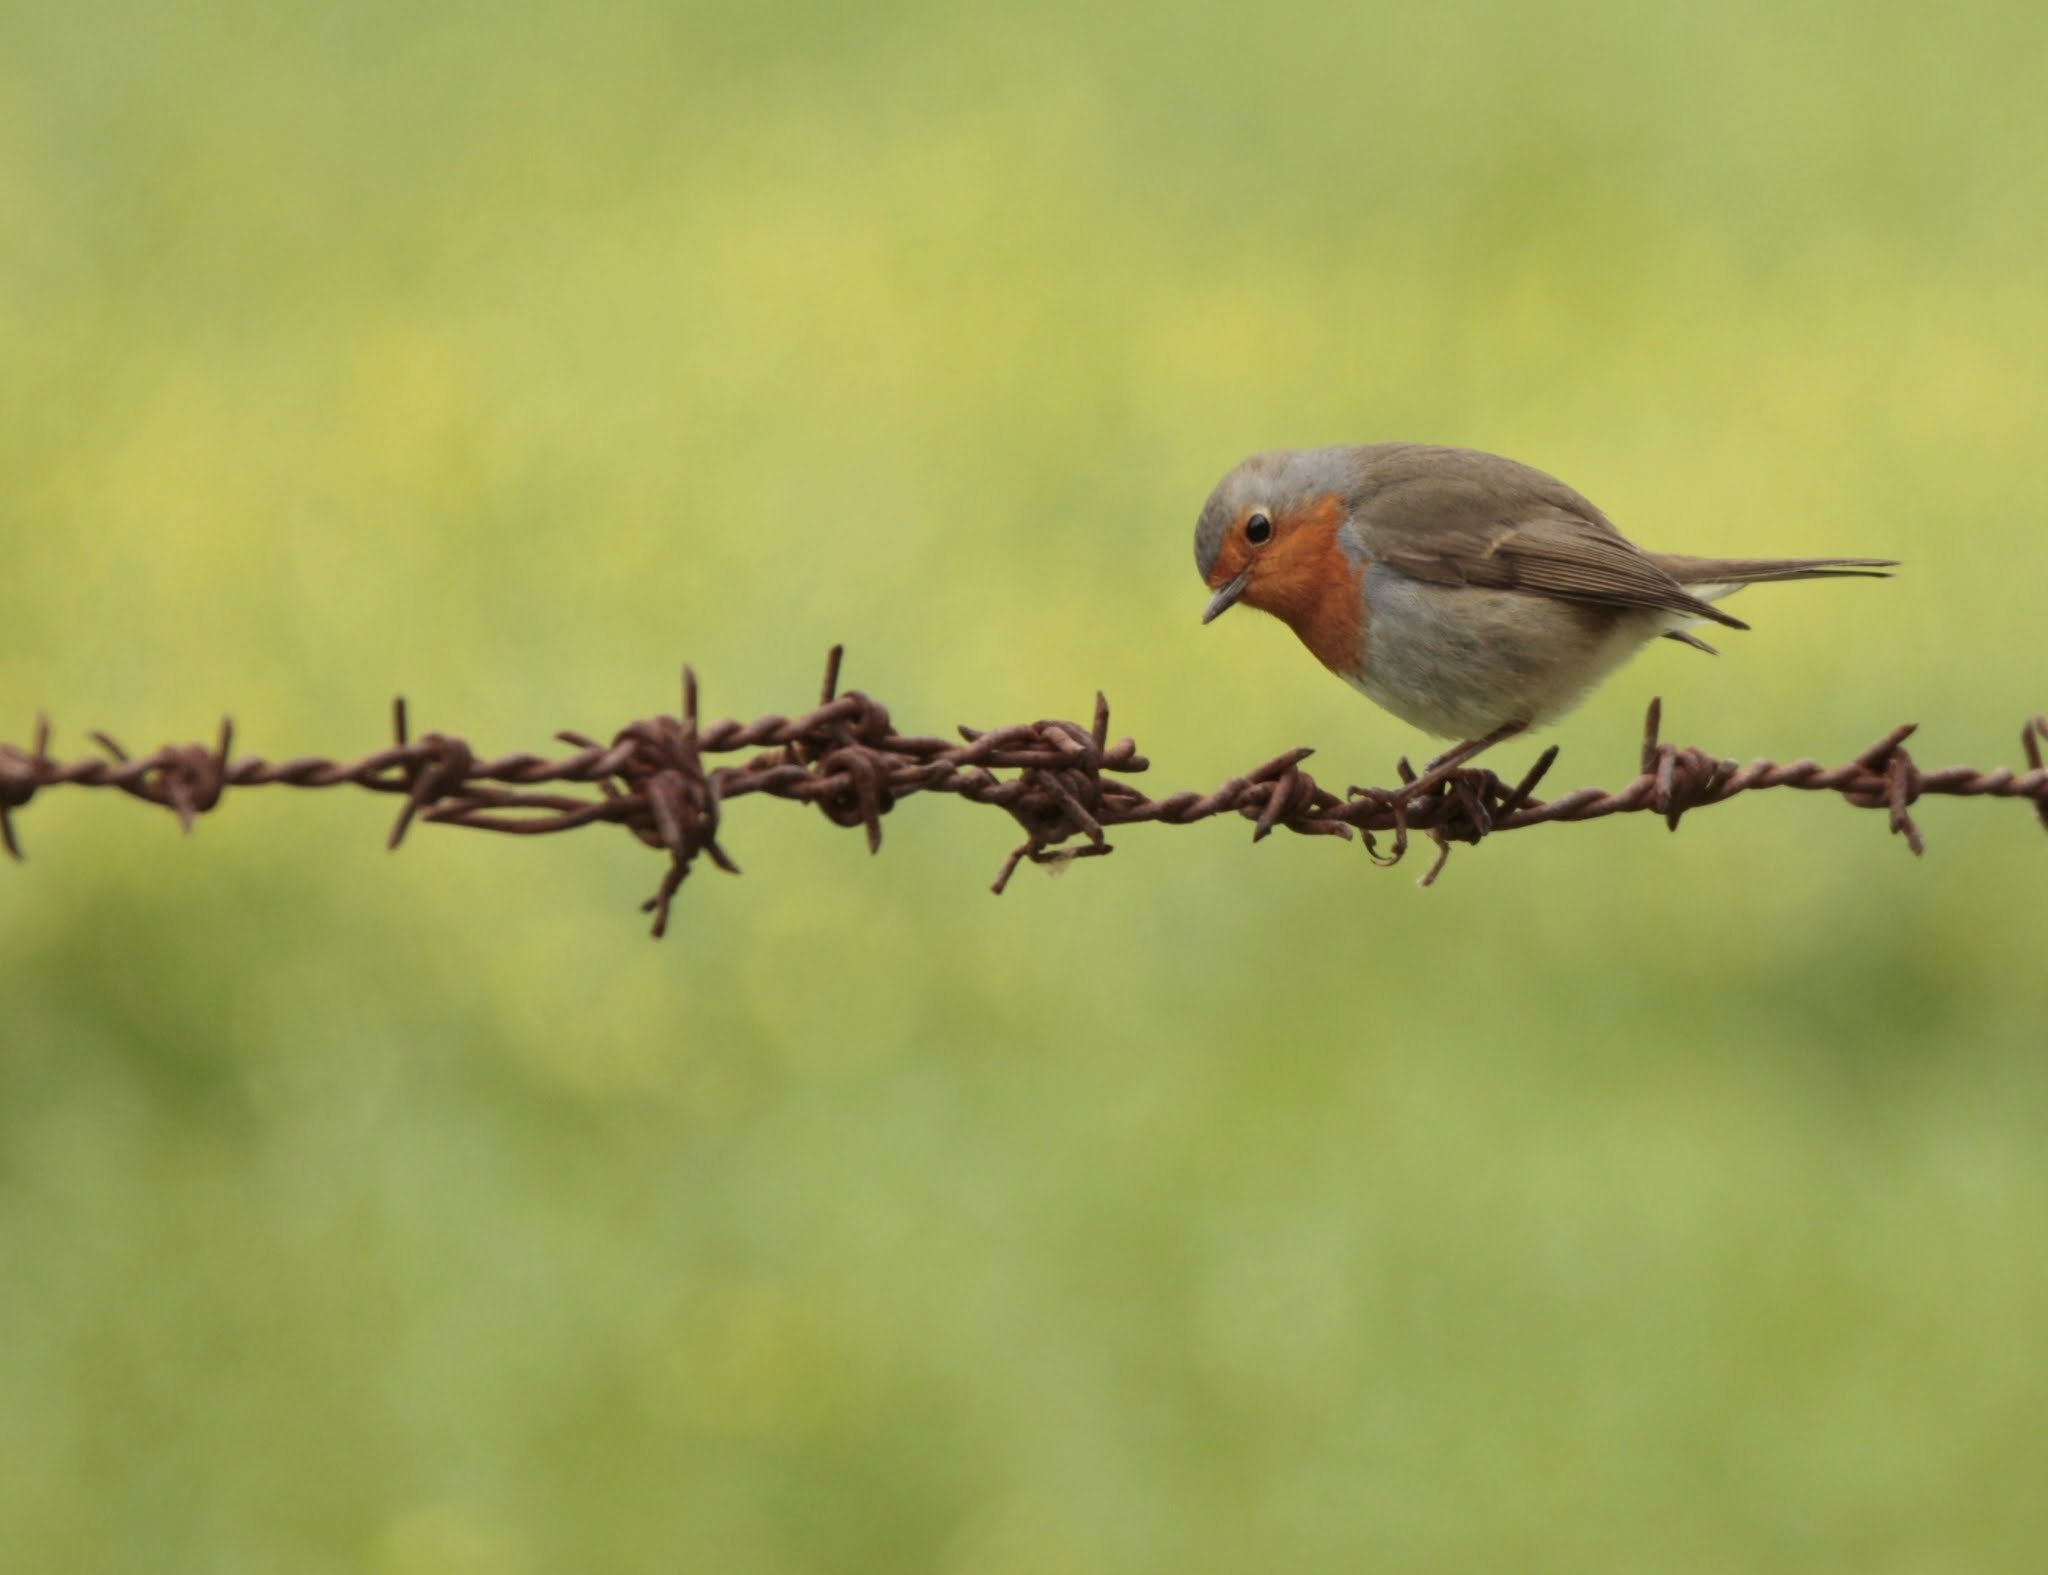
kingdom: Animalia
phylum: Chordata
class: Aves
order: Passeriformes
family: Muscicapidae
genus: Erithacus
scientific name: Erithacus rubecula
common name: European robin
